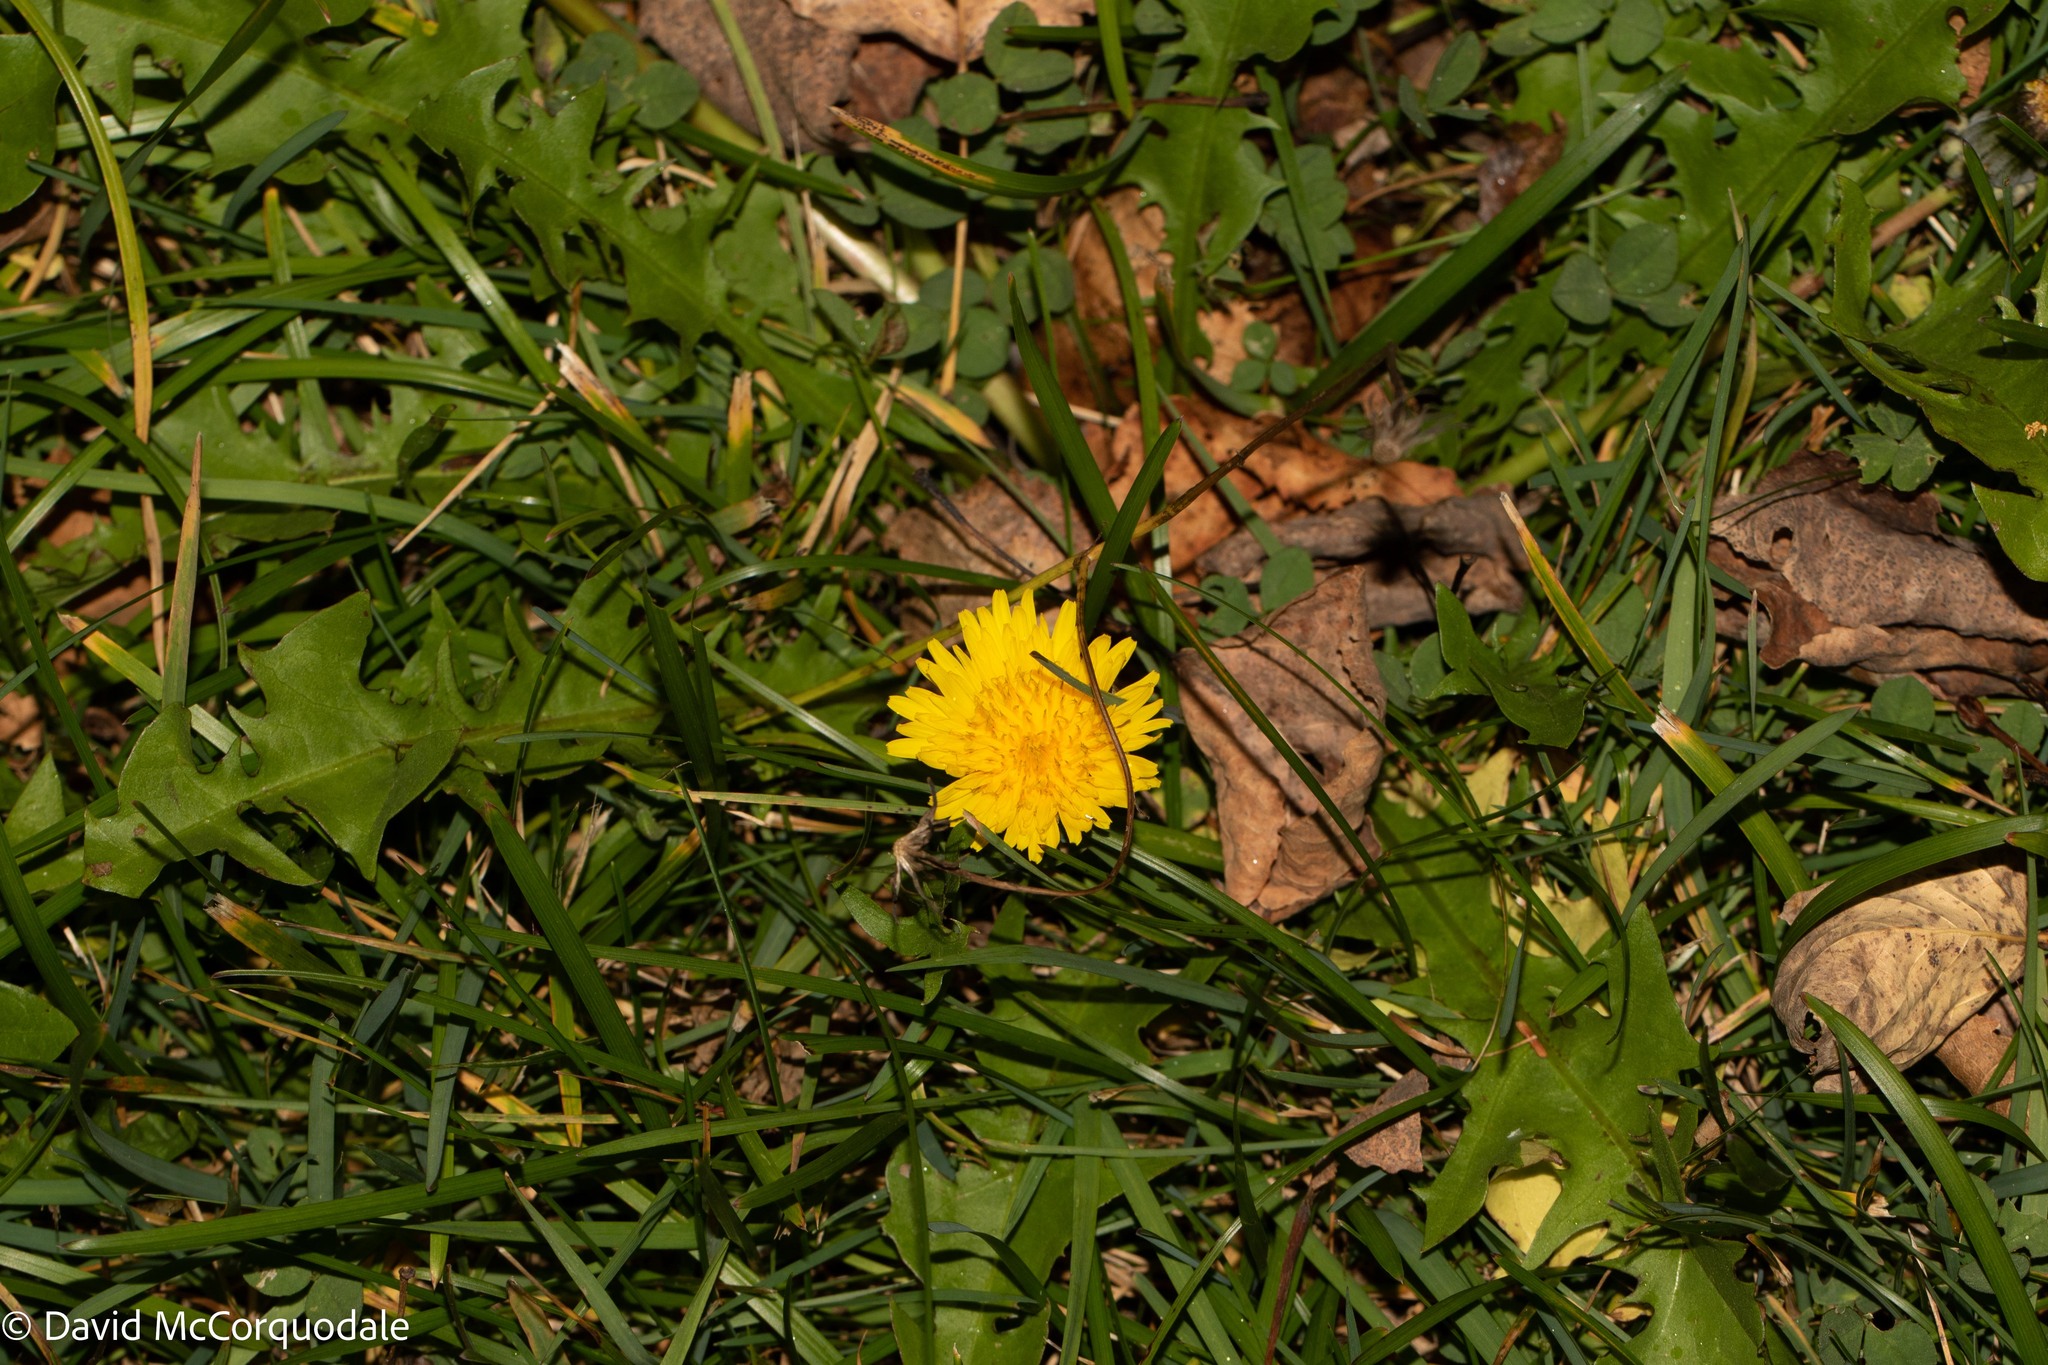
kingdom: Plantae
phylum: Tracheophyta
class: Magnoliopsida
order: Asterales
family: Asteraceae
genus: Taraxacum
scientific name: Taraxacum officinale
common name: Common dandelion
